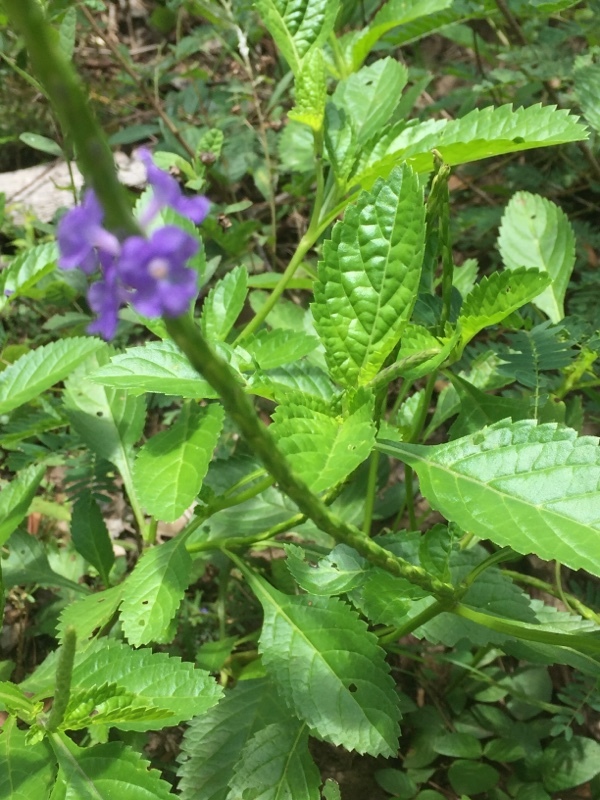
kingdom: Plantae
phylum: Tracheophyta
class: Magnoliopsida
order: Lamiales
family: Verbenaceae
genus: Stachytarpheta
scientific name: Stachytarpheta jamaicensis
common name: Light-blue snakeweed
